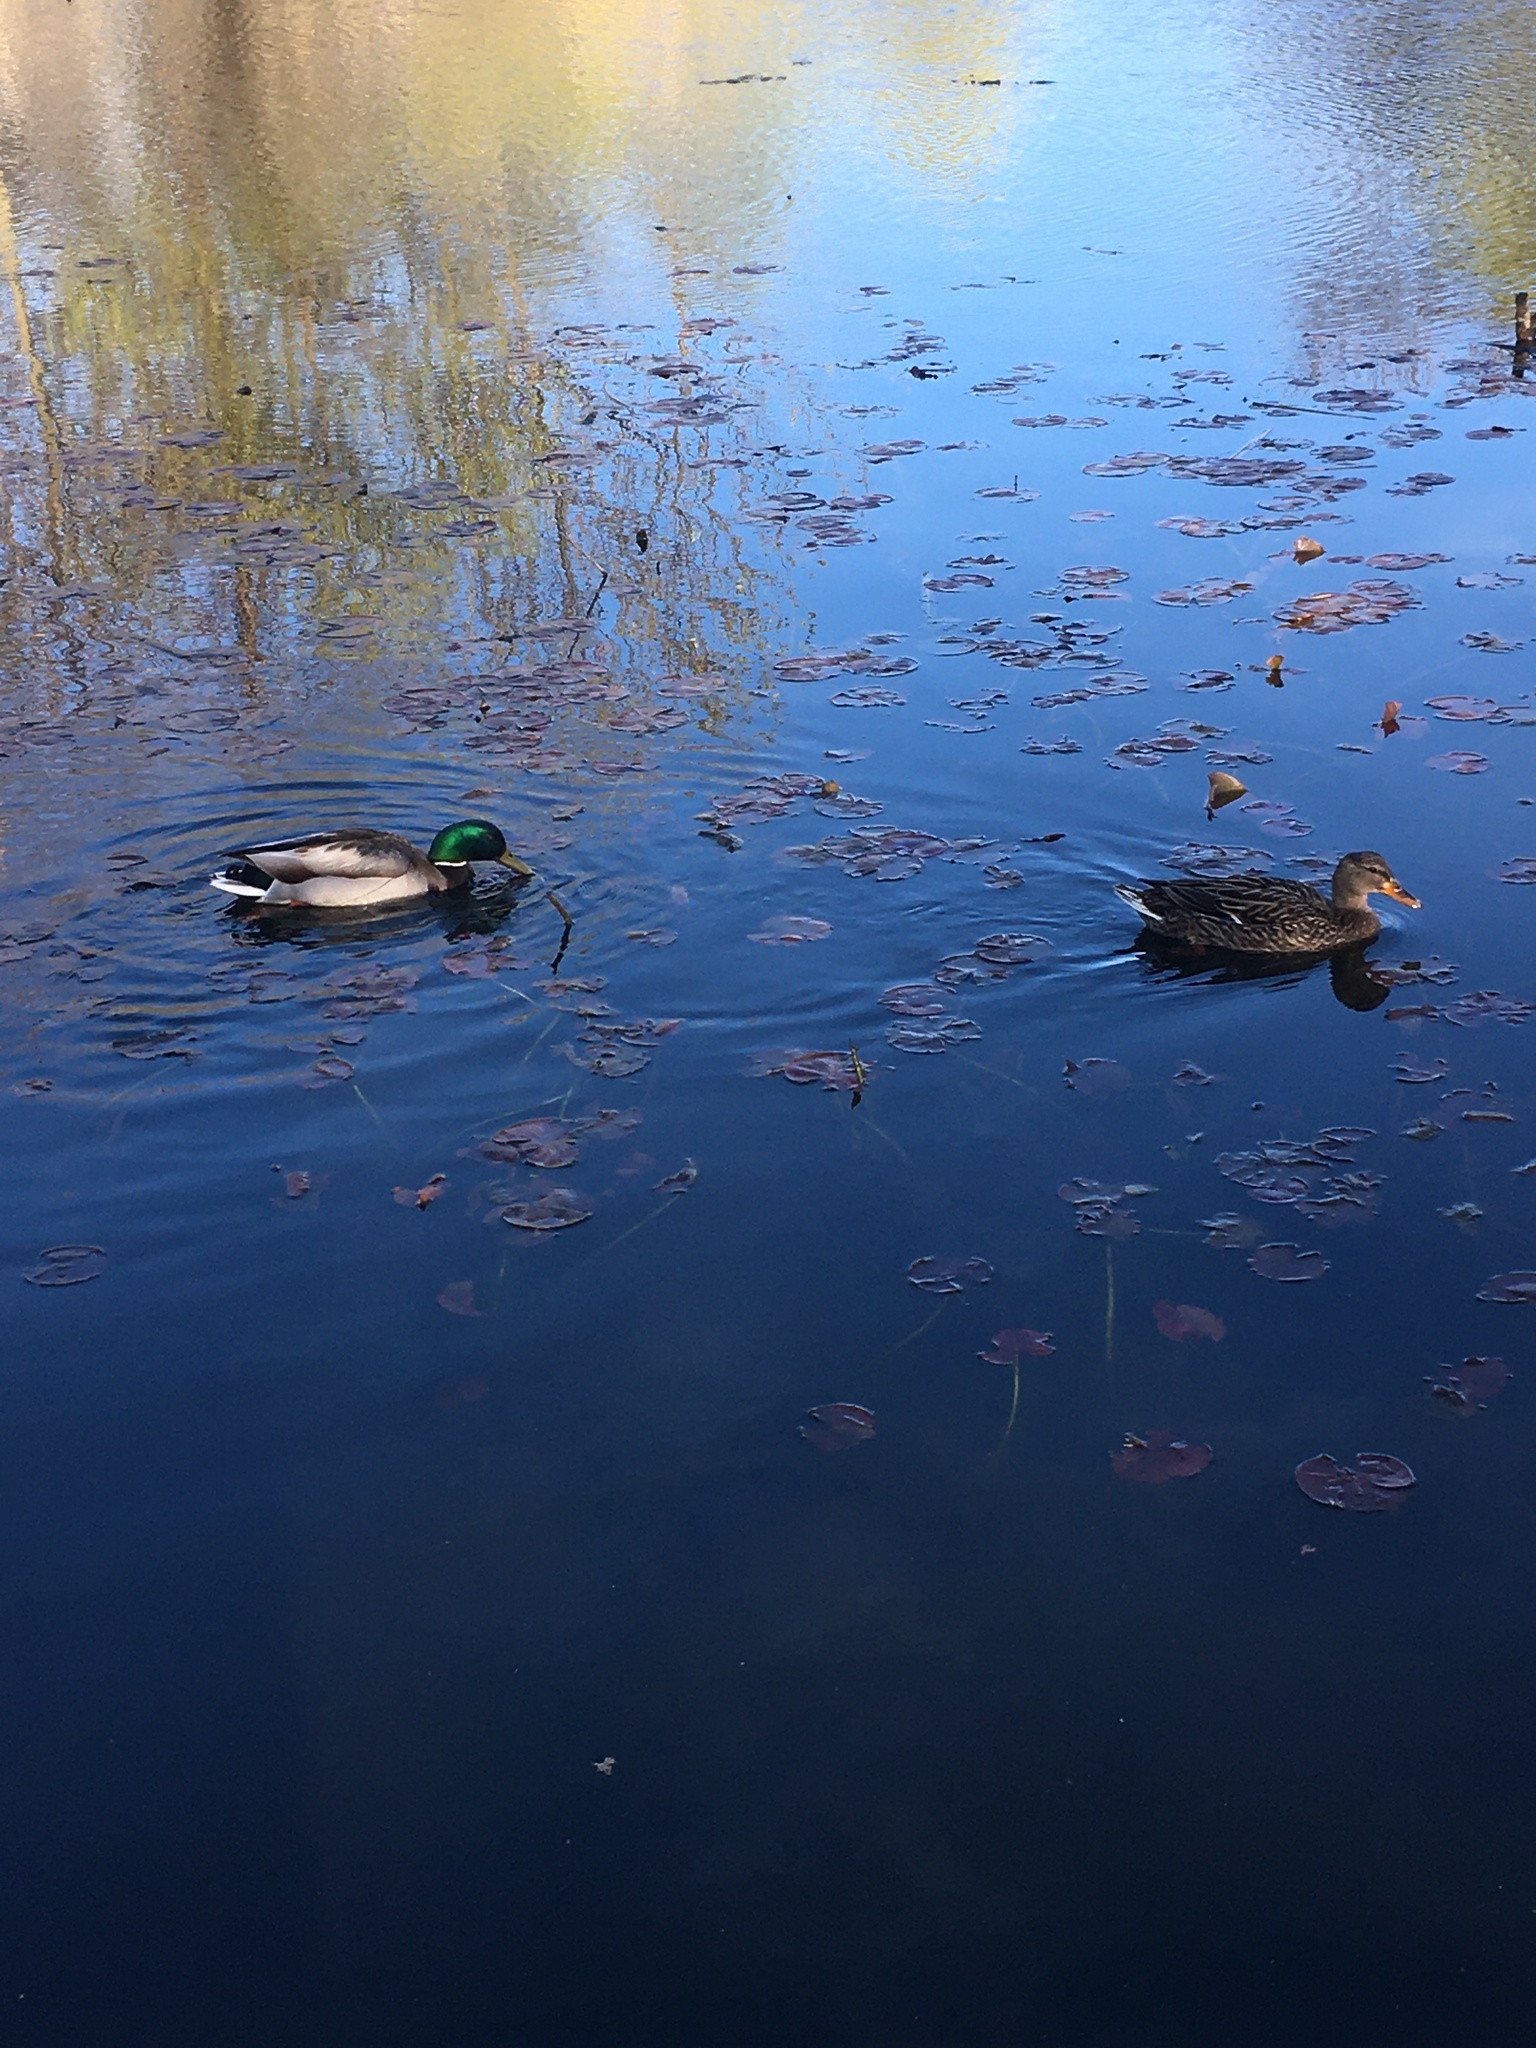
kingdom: Animalia
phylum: Chordata
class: Aves
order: Anseriformes
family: Anatidae
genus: Anas
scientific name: Anas platyrhynchos
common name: Mallard
